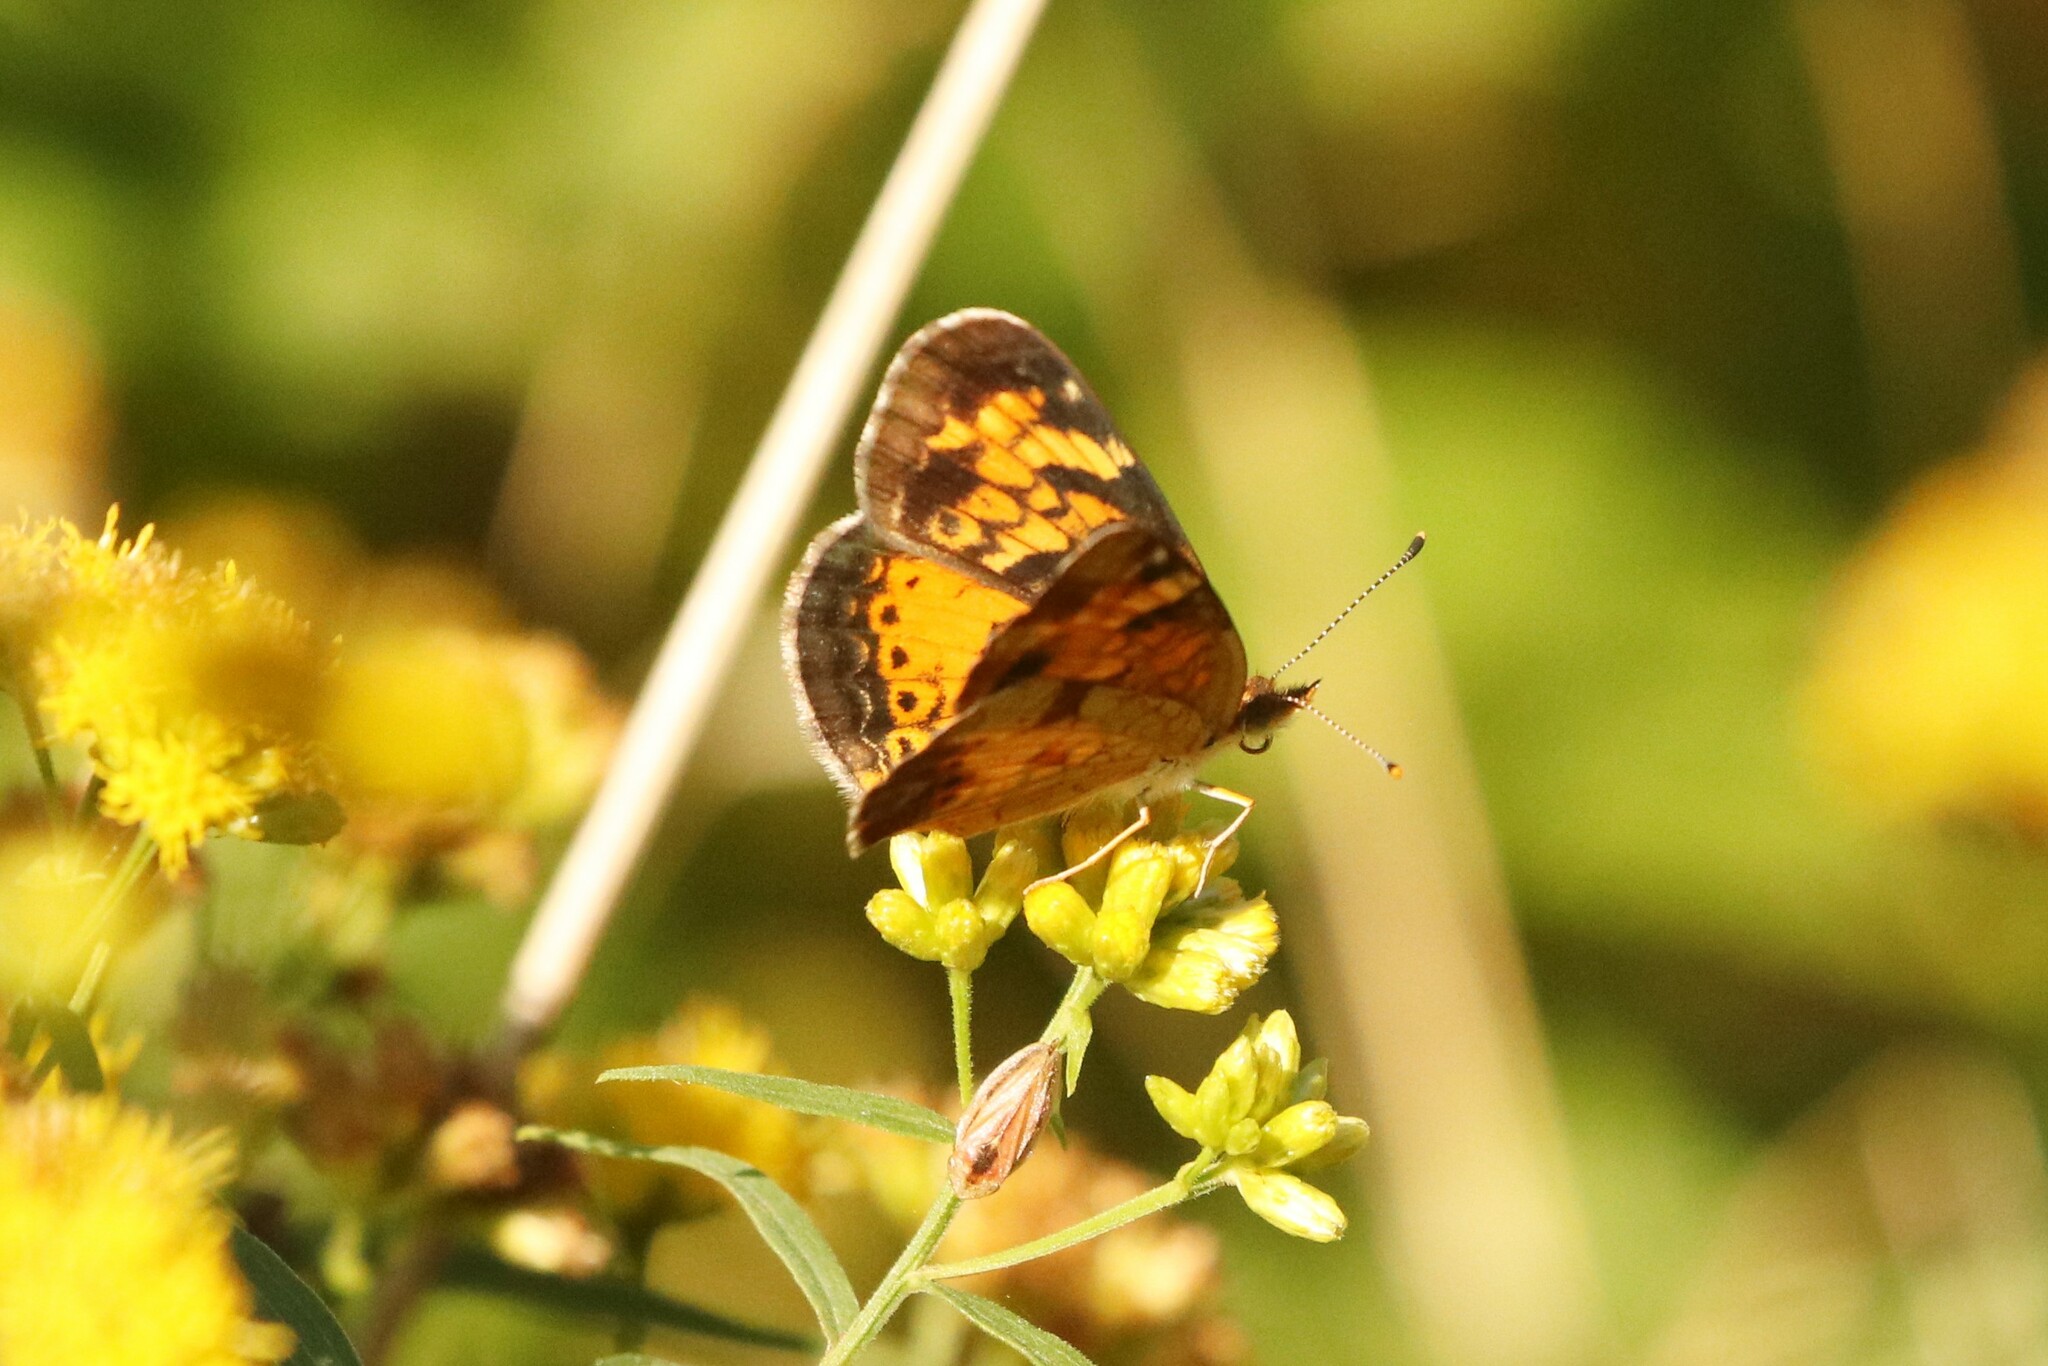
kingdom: Animalia
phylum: Arthropoda
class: Insecta
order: Lepidoptera
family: Nymphalidae
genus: Phyciodes
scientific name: Phyciodes tharos
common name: Pearl crescent
